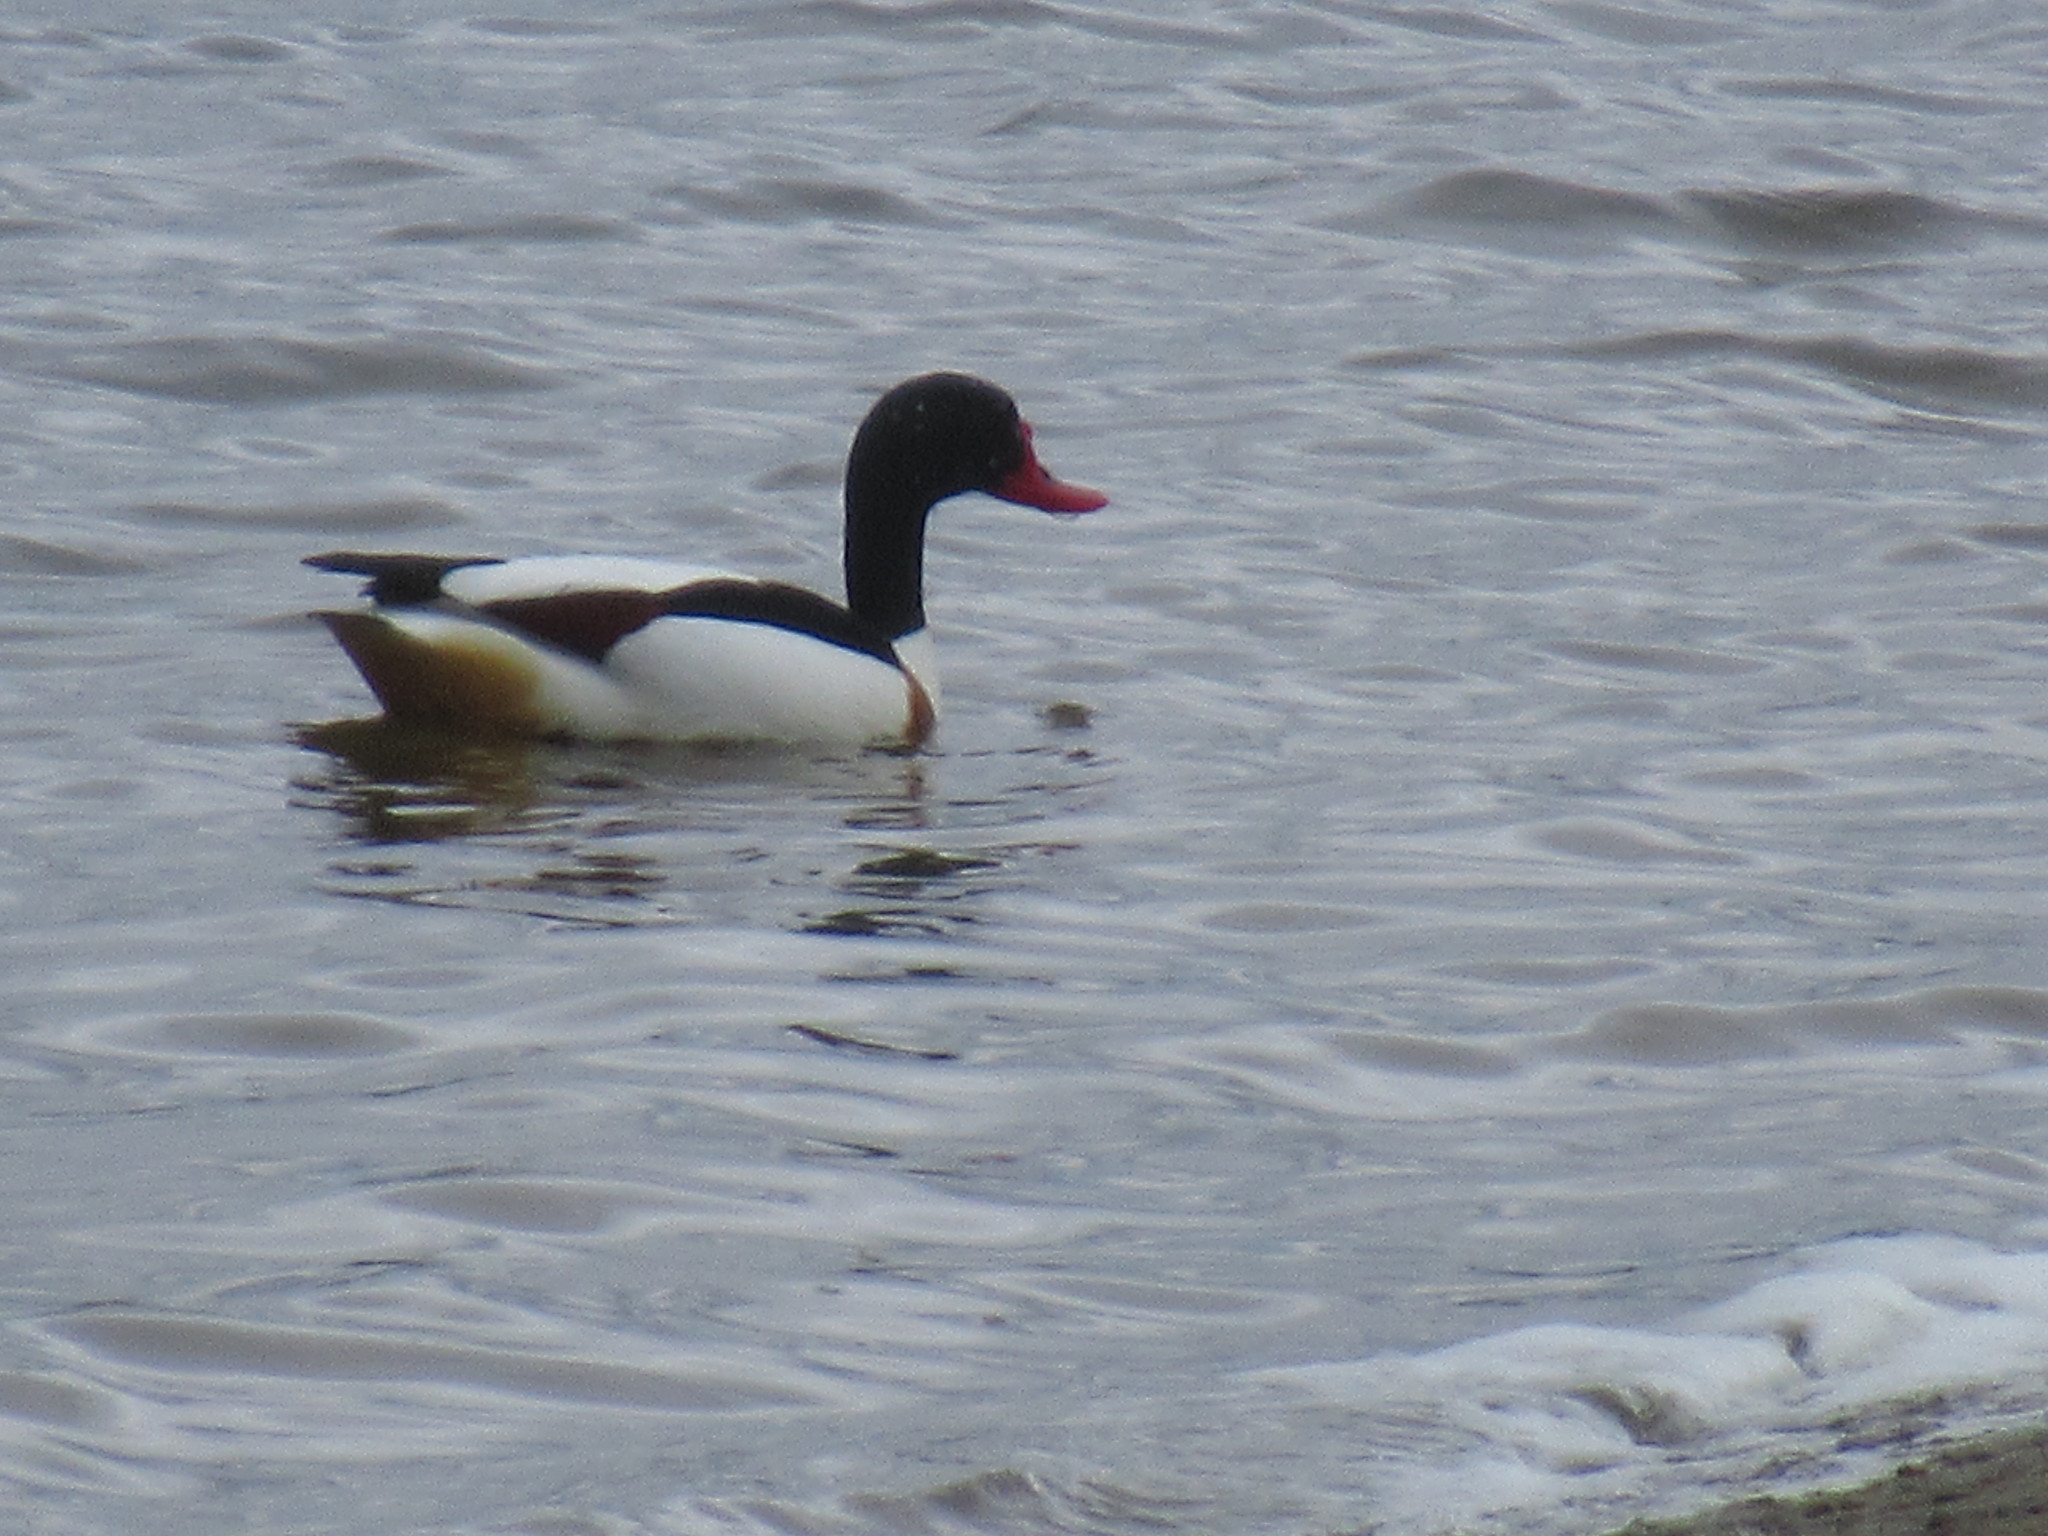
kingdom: Animalia
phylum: Chordata
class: Aves
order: Anseriformes
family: Anatidae
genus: Tadorna
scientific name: Tadorna tadorna
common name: Common shelduck
